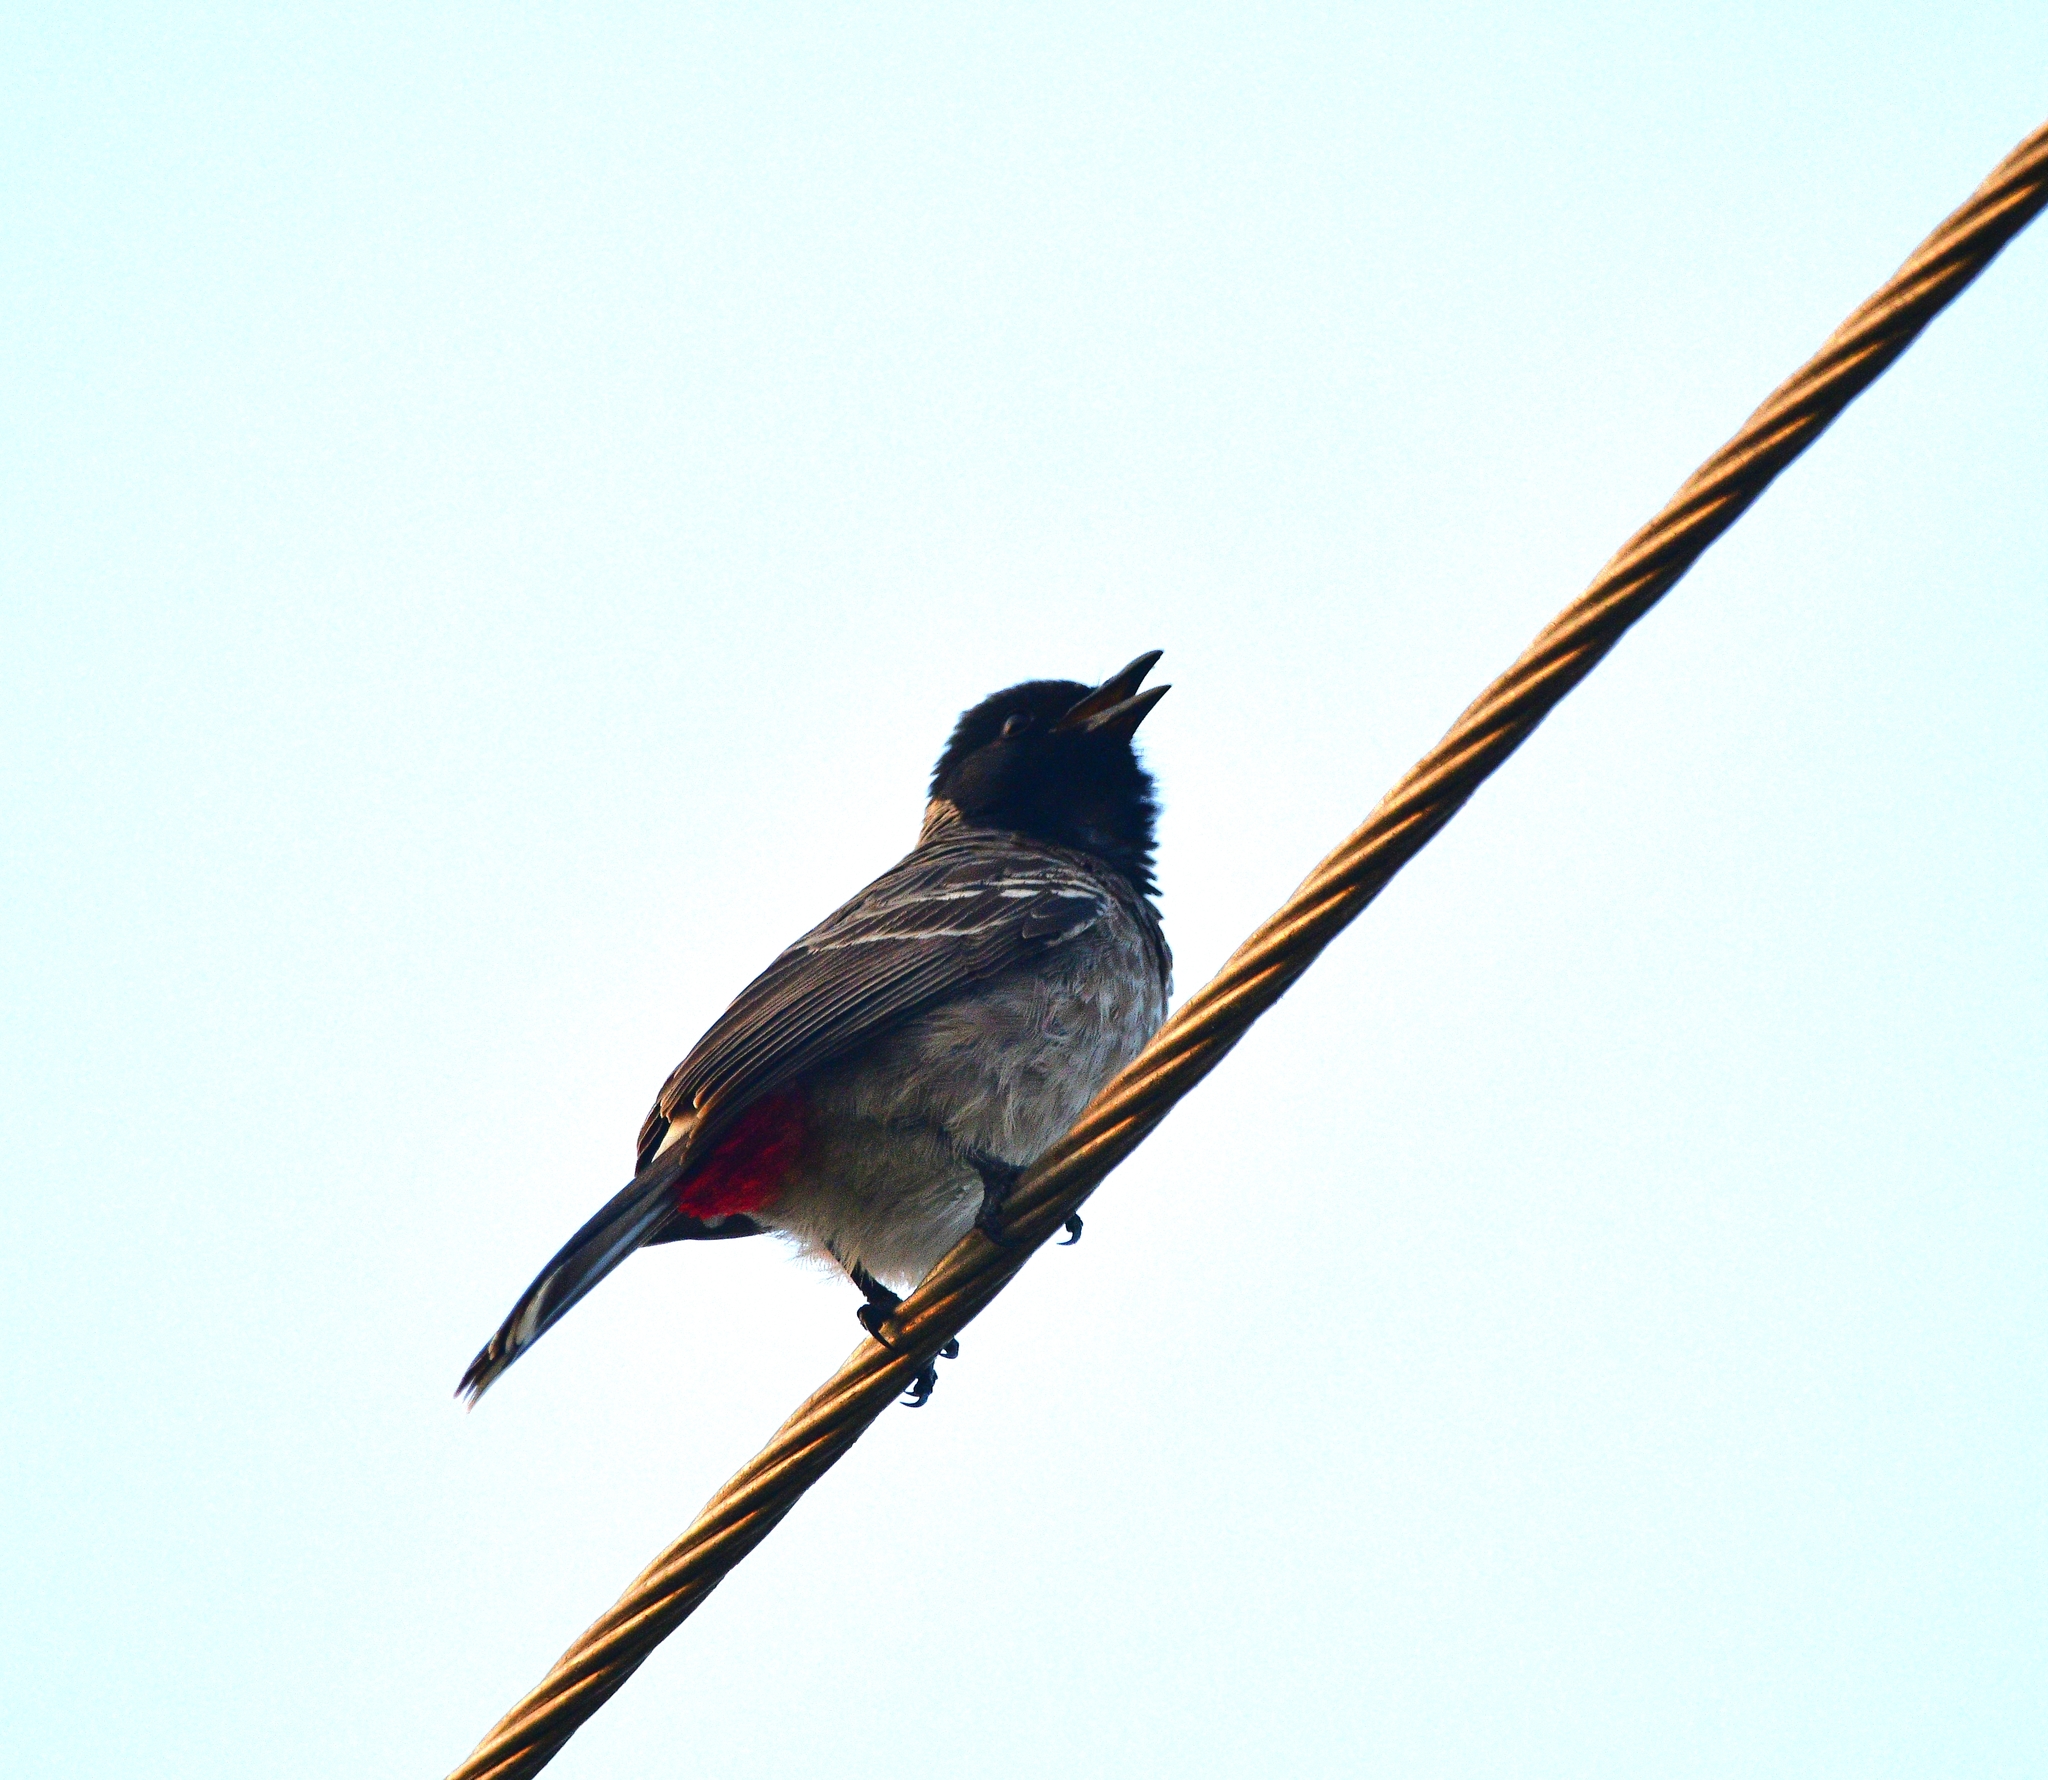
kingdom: Animalia
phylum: Chordata
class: Aves
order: Passeriformes
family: Pycnonotidae
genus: Pycnonotus
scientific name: Pycnonotus cafer
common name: Red-vented bulbul
